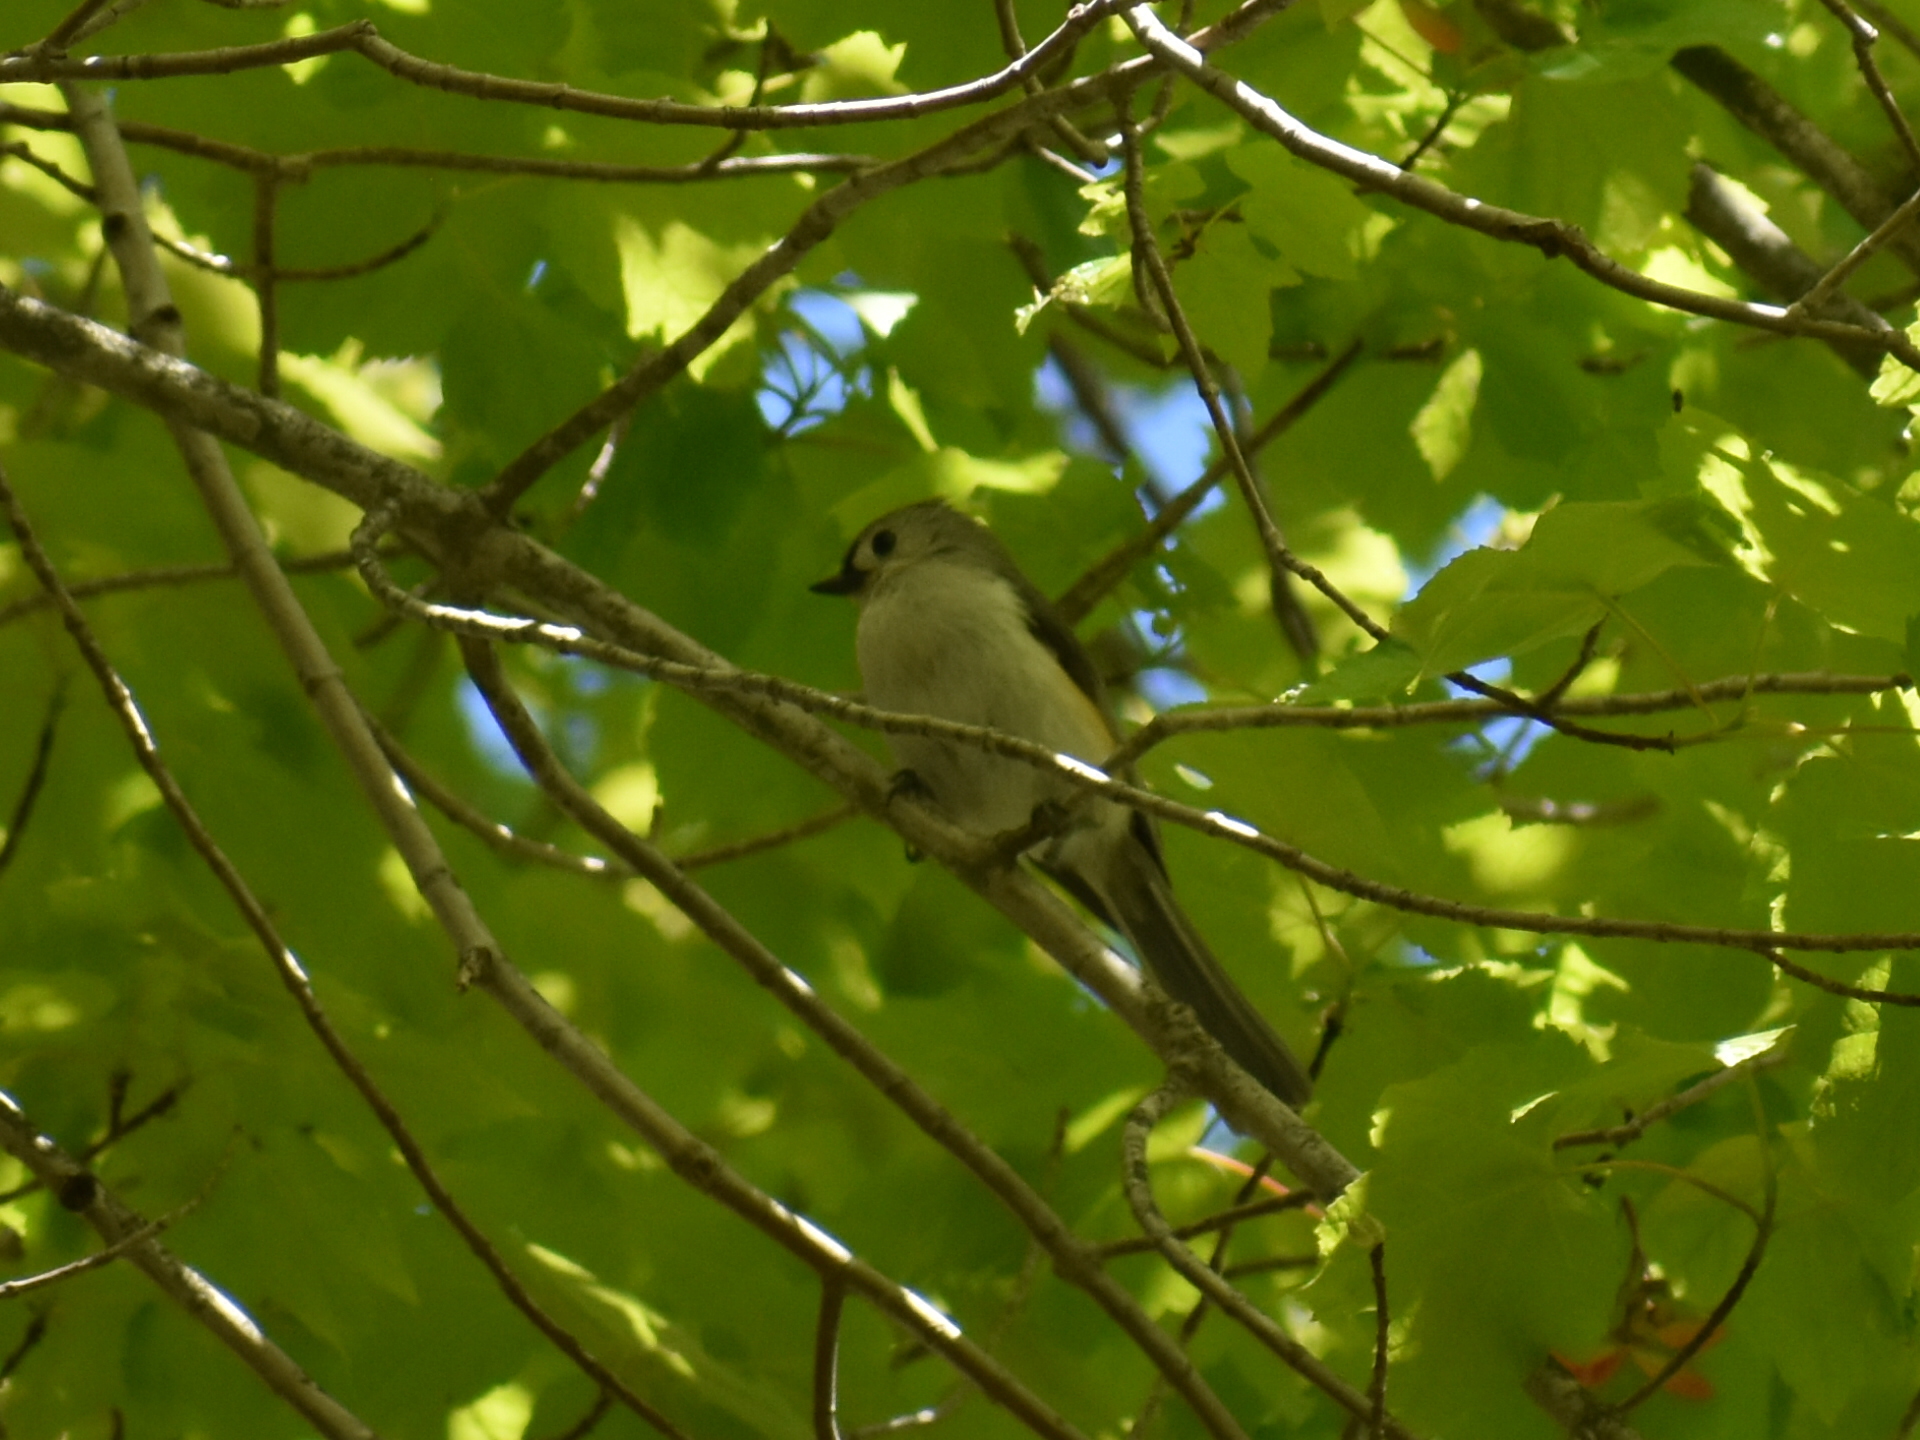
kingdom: Animalia
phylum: Chordata
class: Aves
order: Passeriformes
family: Paridae
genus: Baeolophus
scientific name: Baeolophus bicolor
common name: Tufted titmouse
